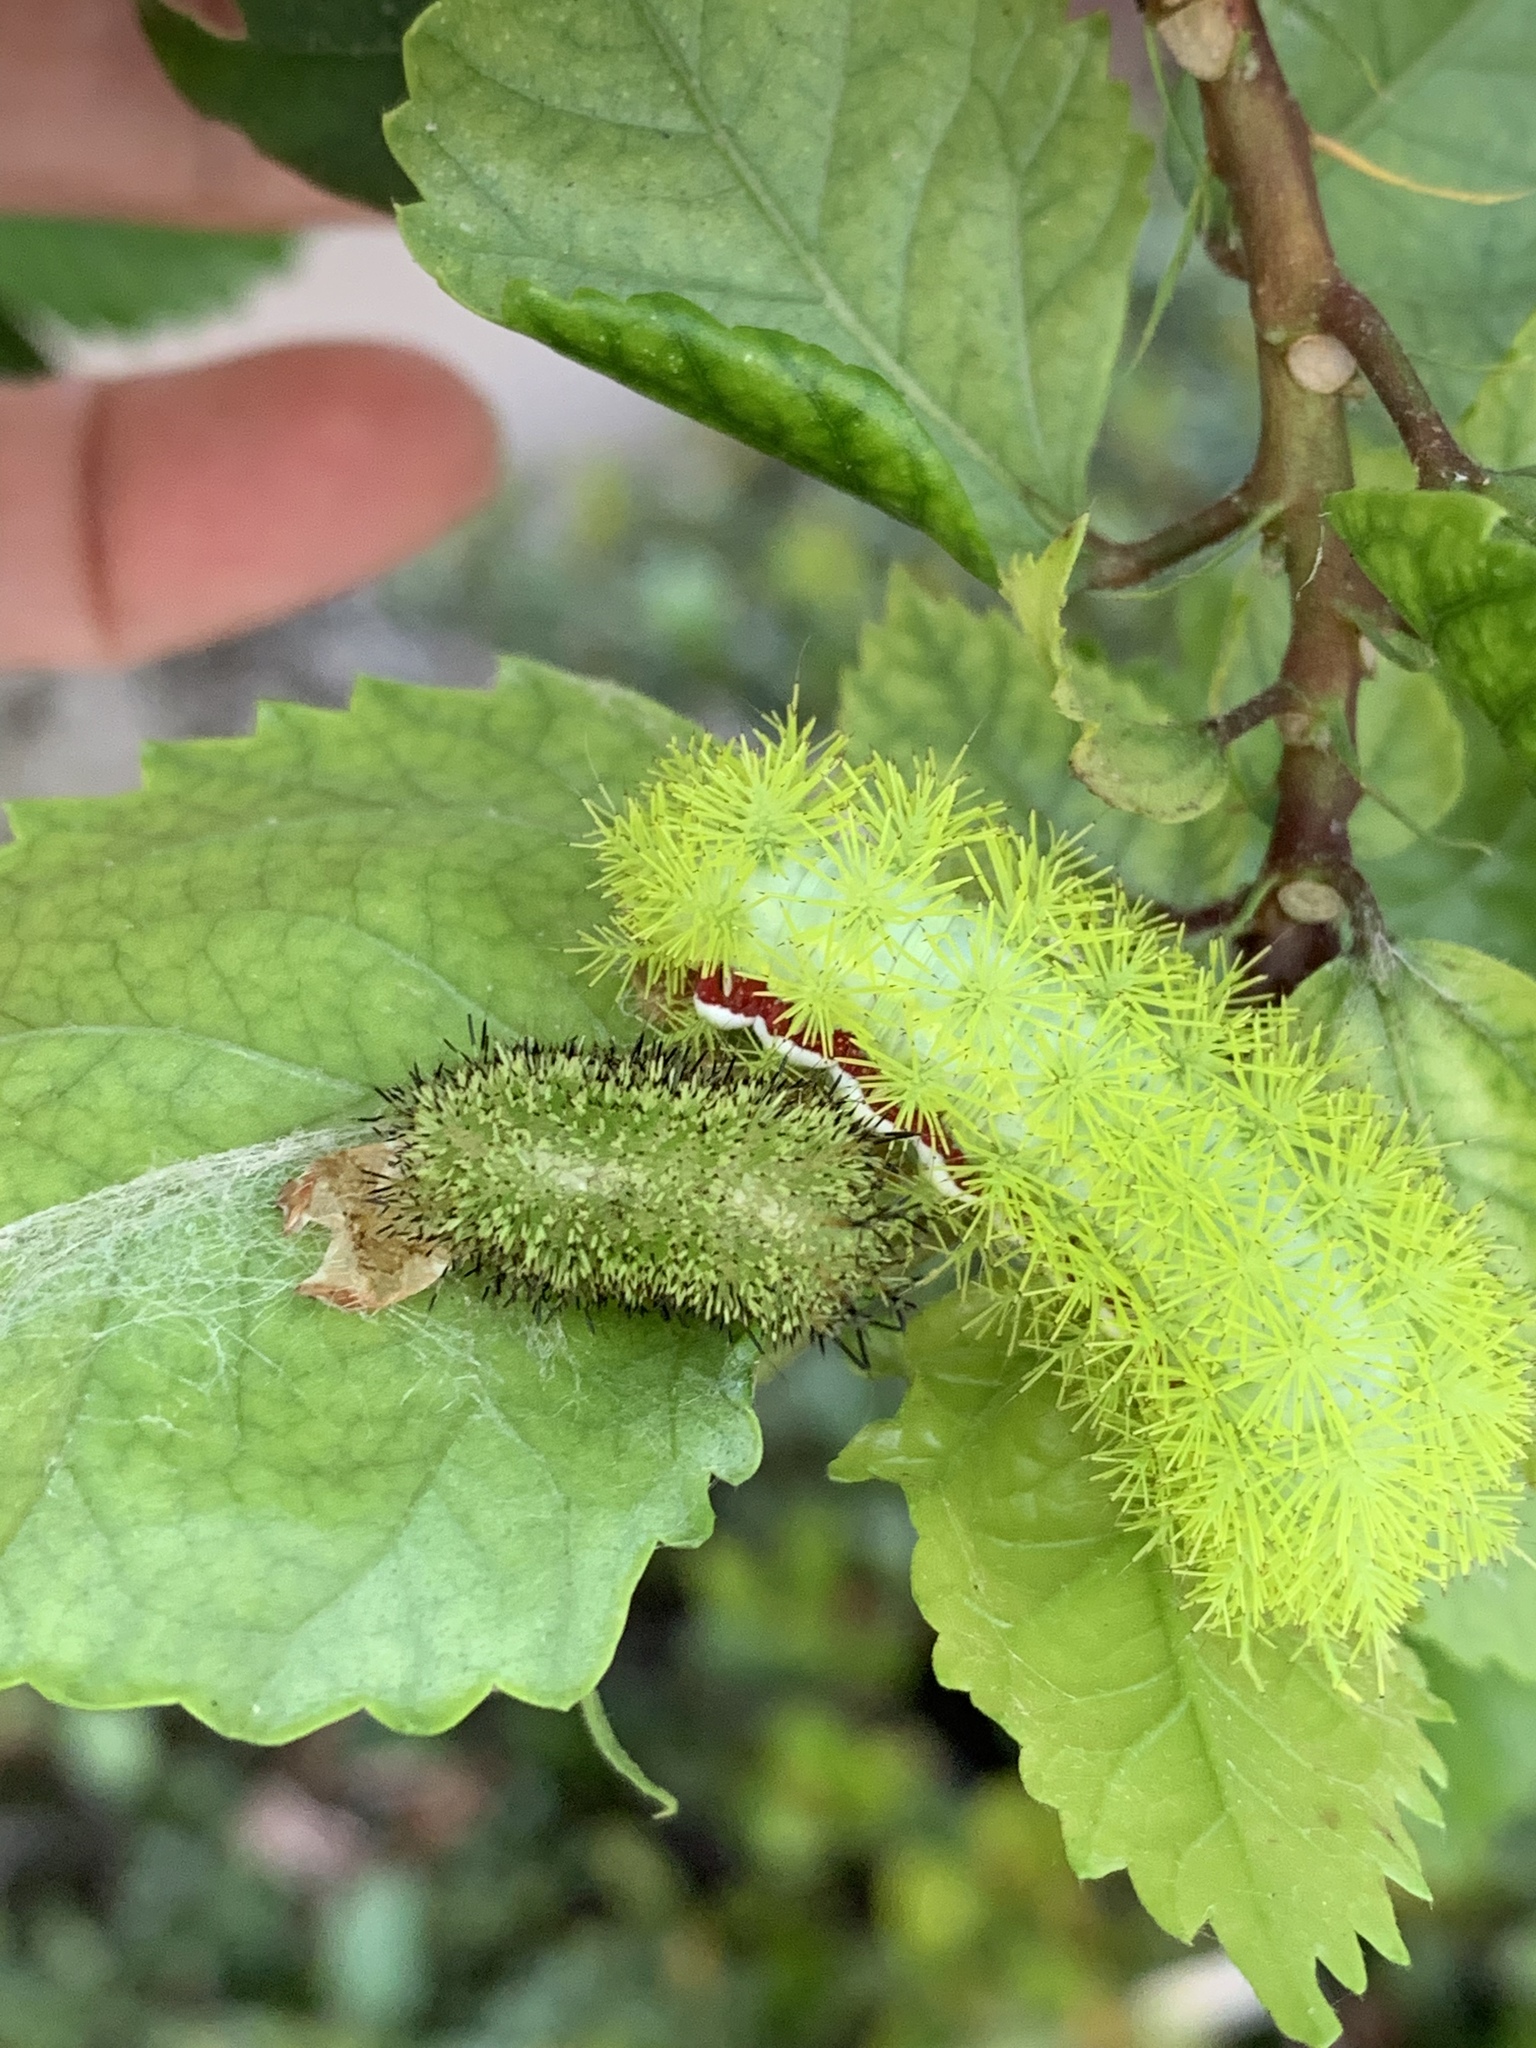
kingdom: Animalia
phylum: Arthropoda
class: Insecta
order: Lepidoptera
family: Saturniidae
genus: Automeris
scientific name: Automeris io
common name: Io moth
